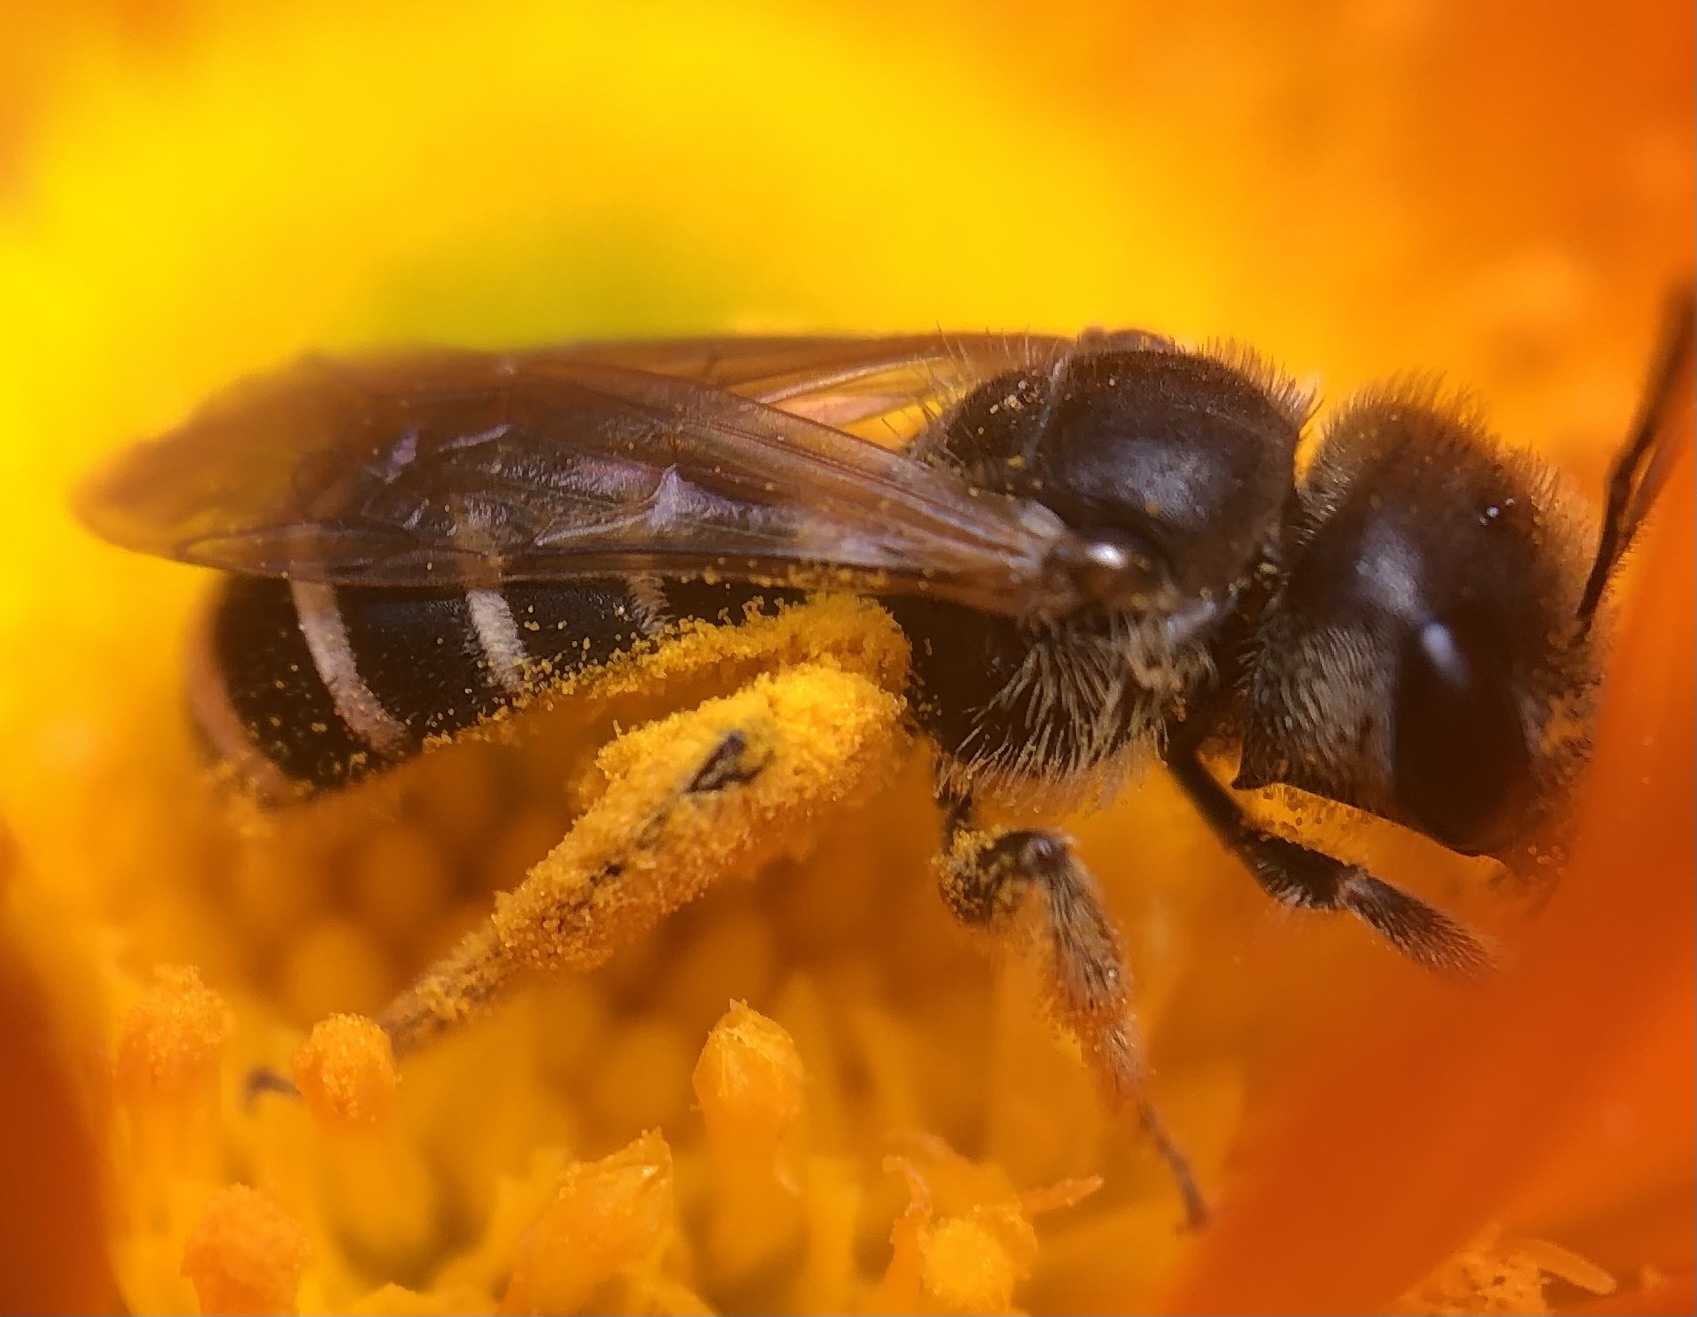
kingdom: Animalia
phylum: Arthropoda
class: Insecta
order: Hymenoptera
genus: Odontalictus
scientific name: Odontalictus
